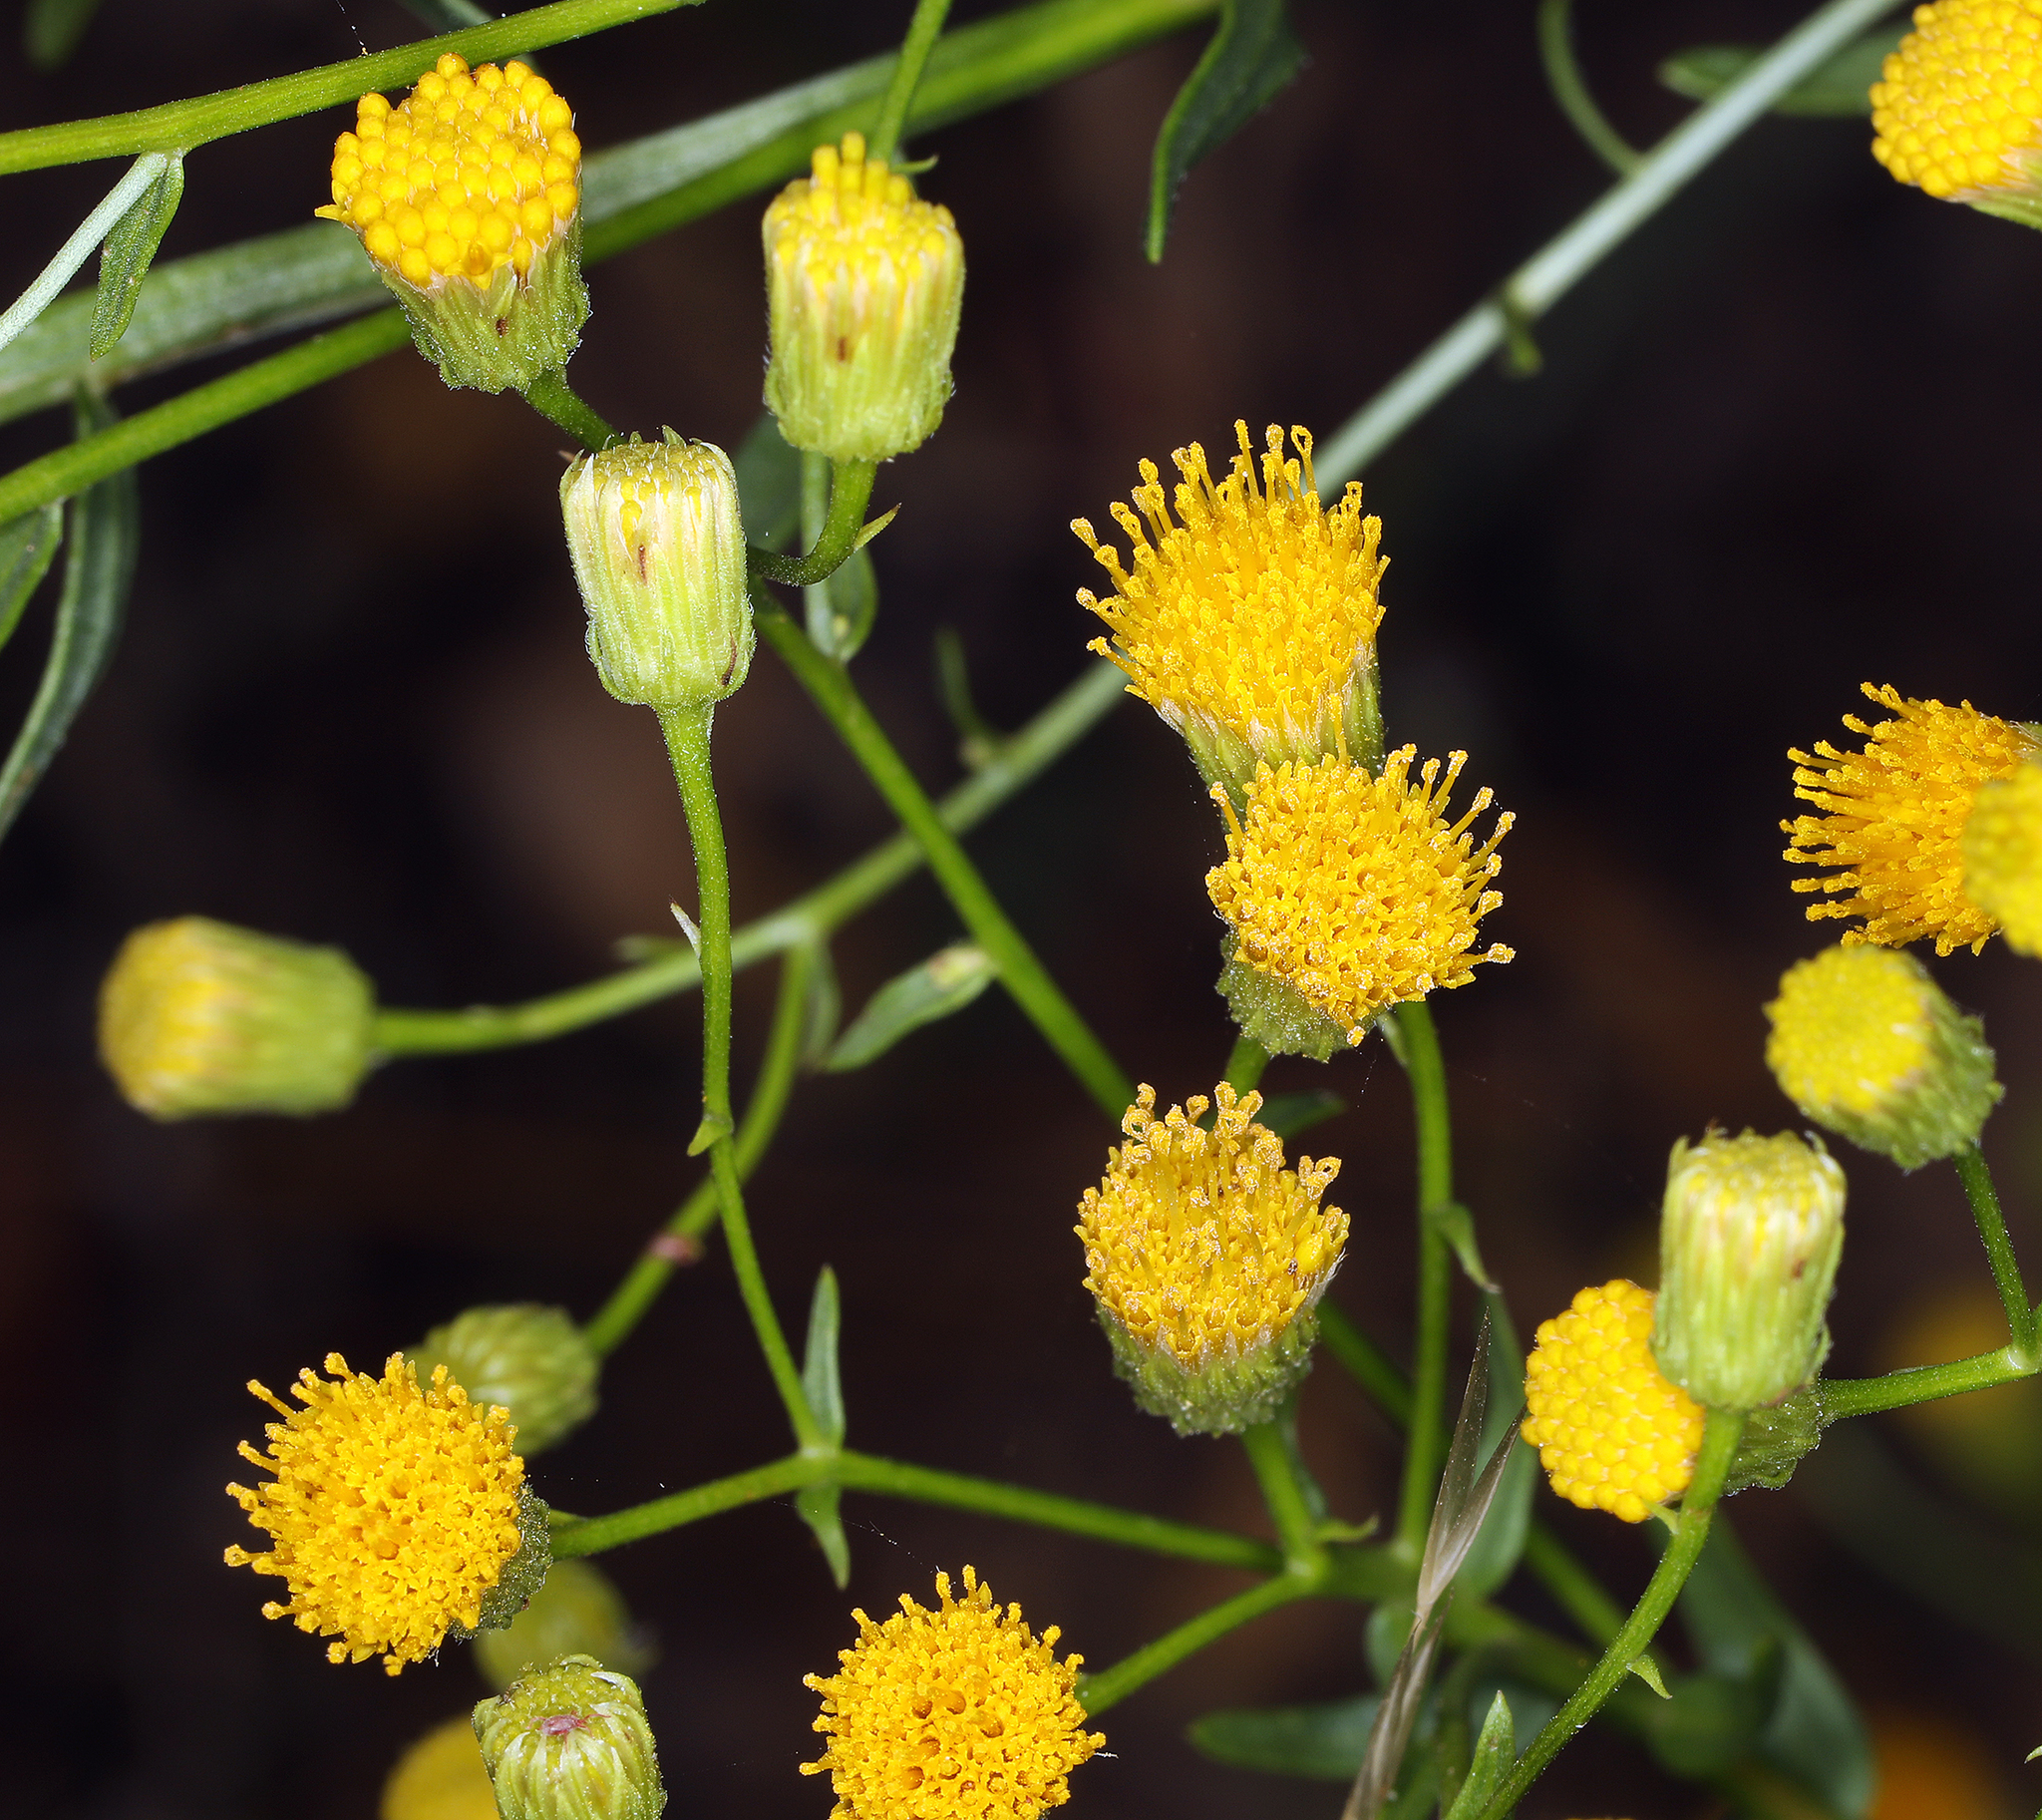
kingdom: Plantae
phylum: Tracheophyta
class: Magnoliopsida
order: Asterales
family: Asteraceae
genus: Erigeron
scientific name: Erigeron inornatus
